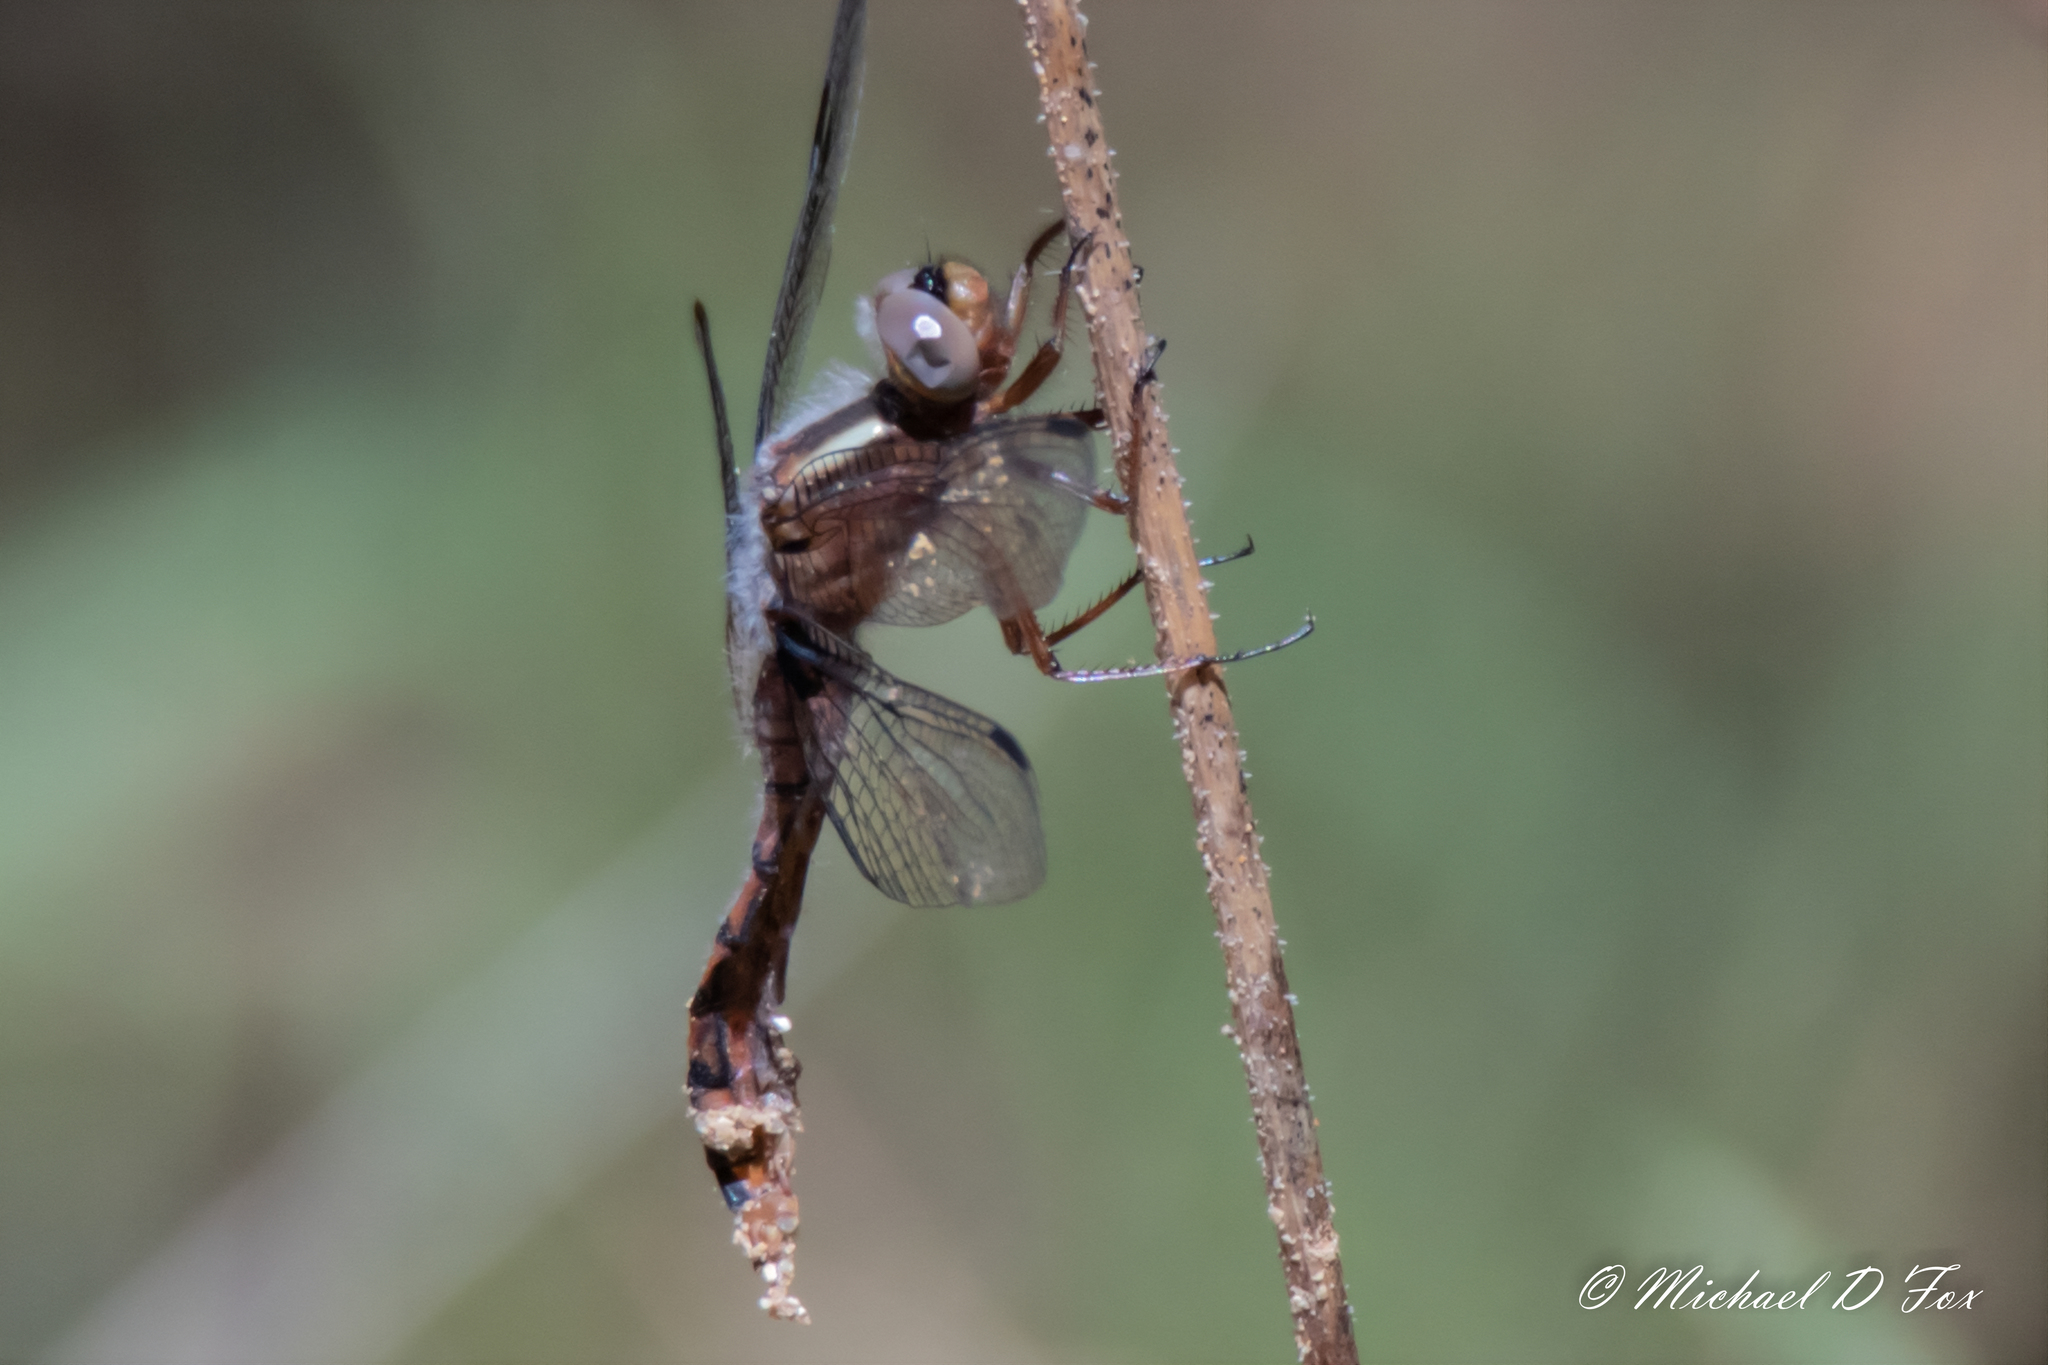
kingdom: Animalia
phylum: Arthropoda
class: Insecta
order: Odonata
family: Libellulidae
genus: Ladona
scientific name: Ladona deplanata
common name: Blue corporal
